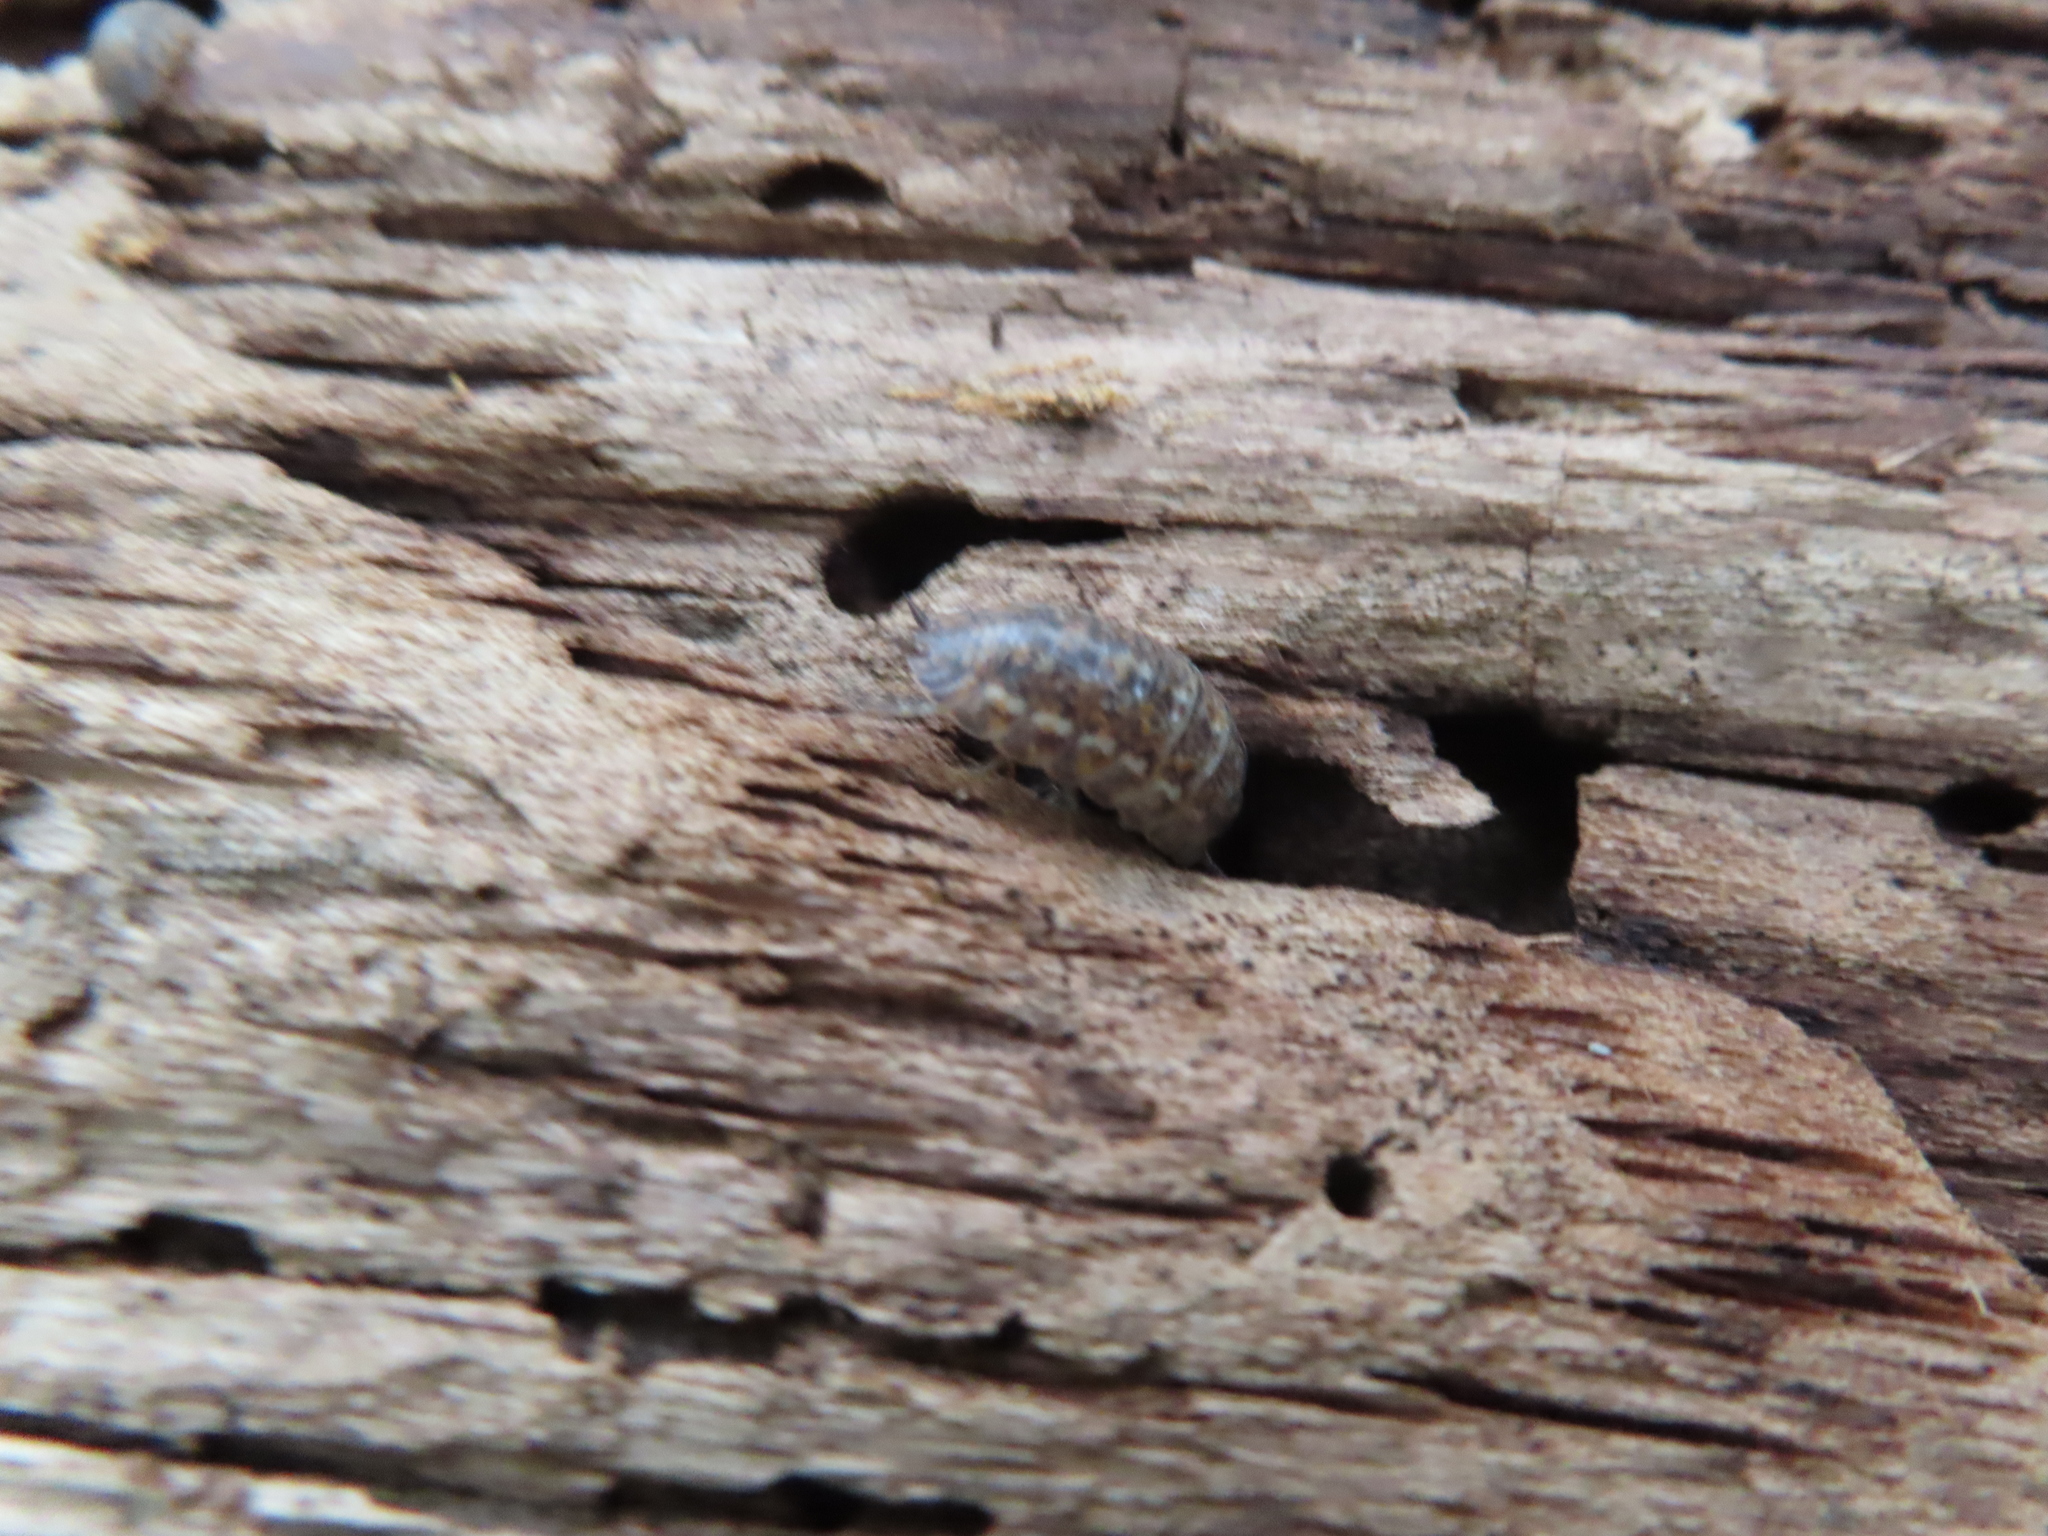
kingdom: Animalia
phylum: Arthropoda
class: Malacostraca
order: Isopoda
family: Trachelipodidae
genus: Trachelipus
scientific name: Trachelipus rathkii
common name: Isopod
